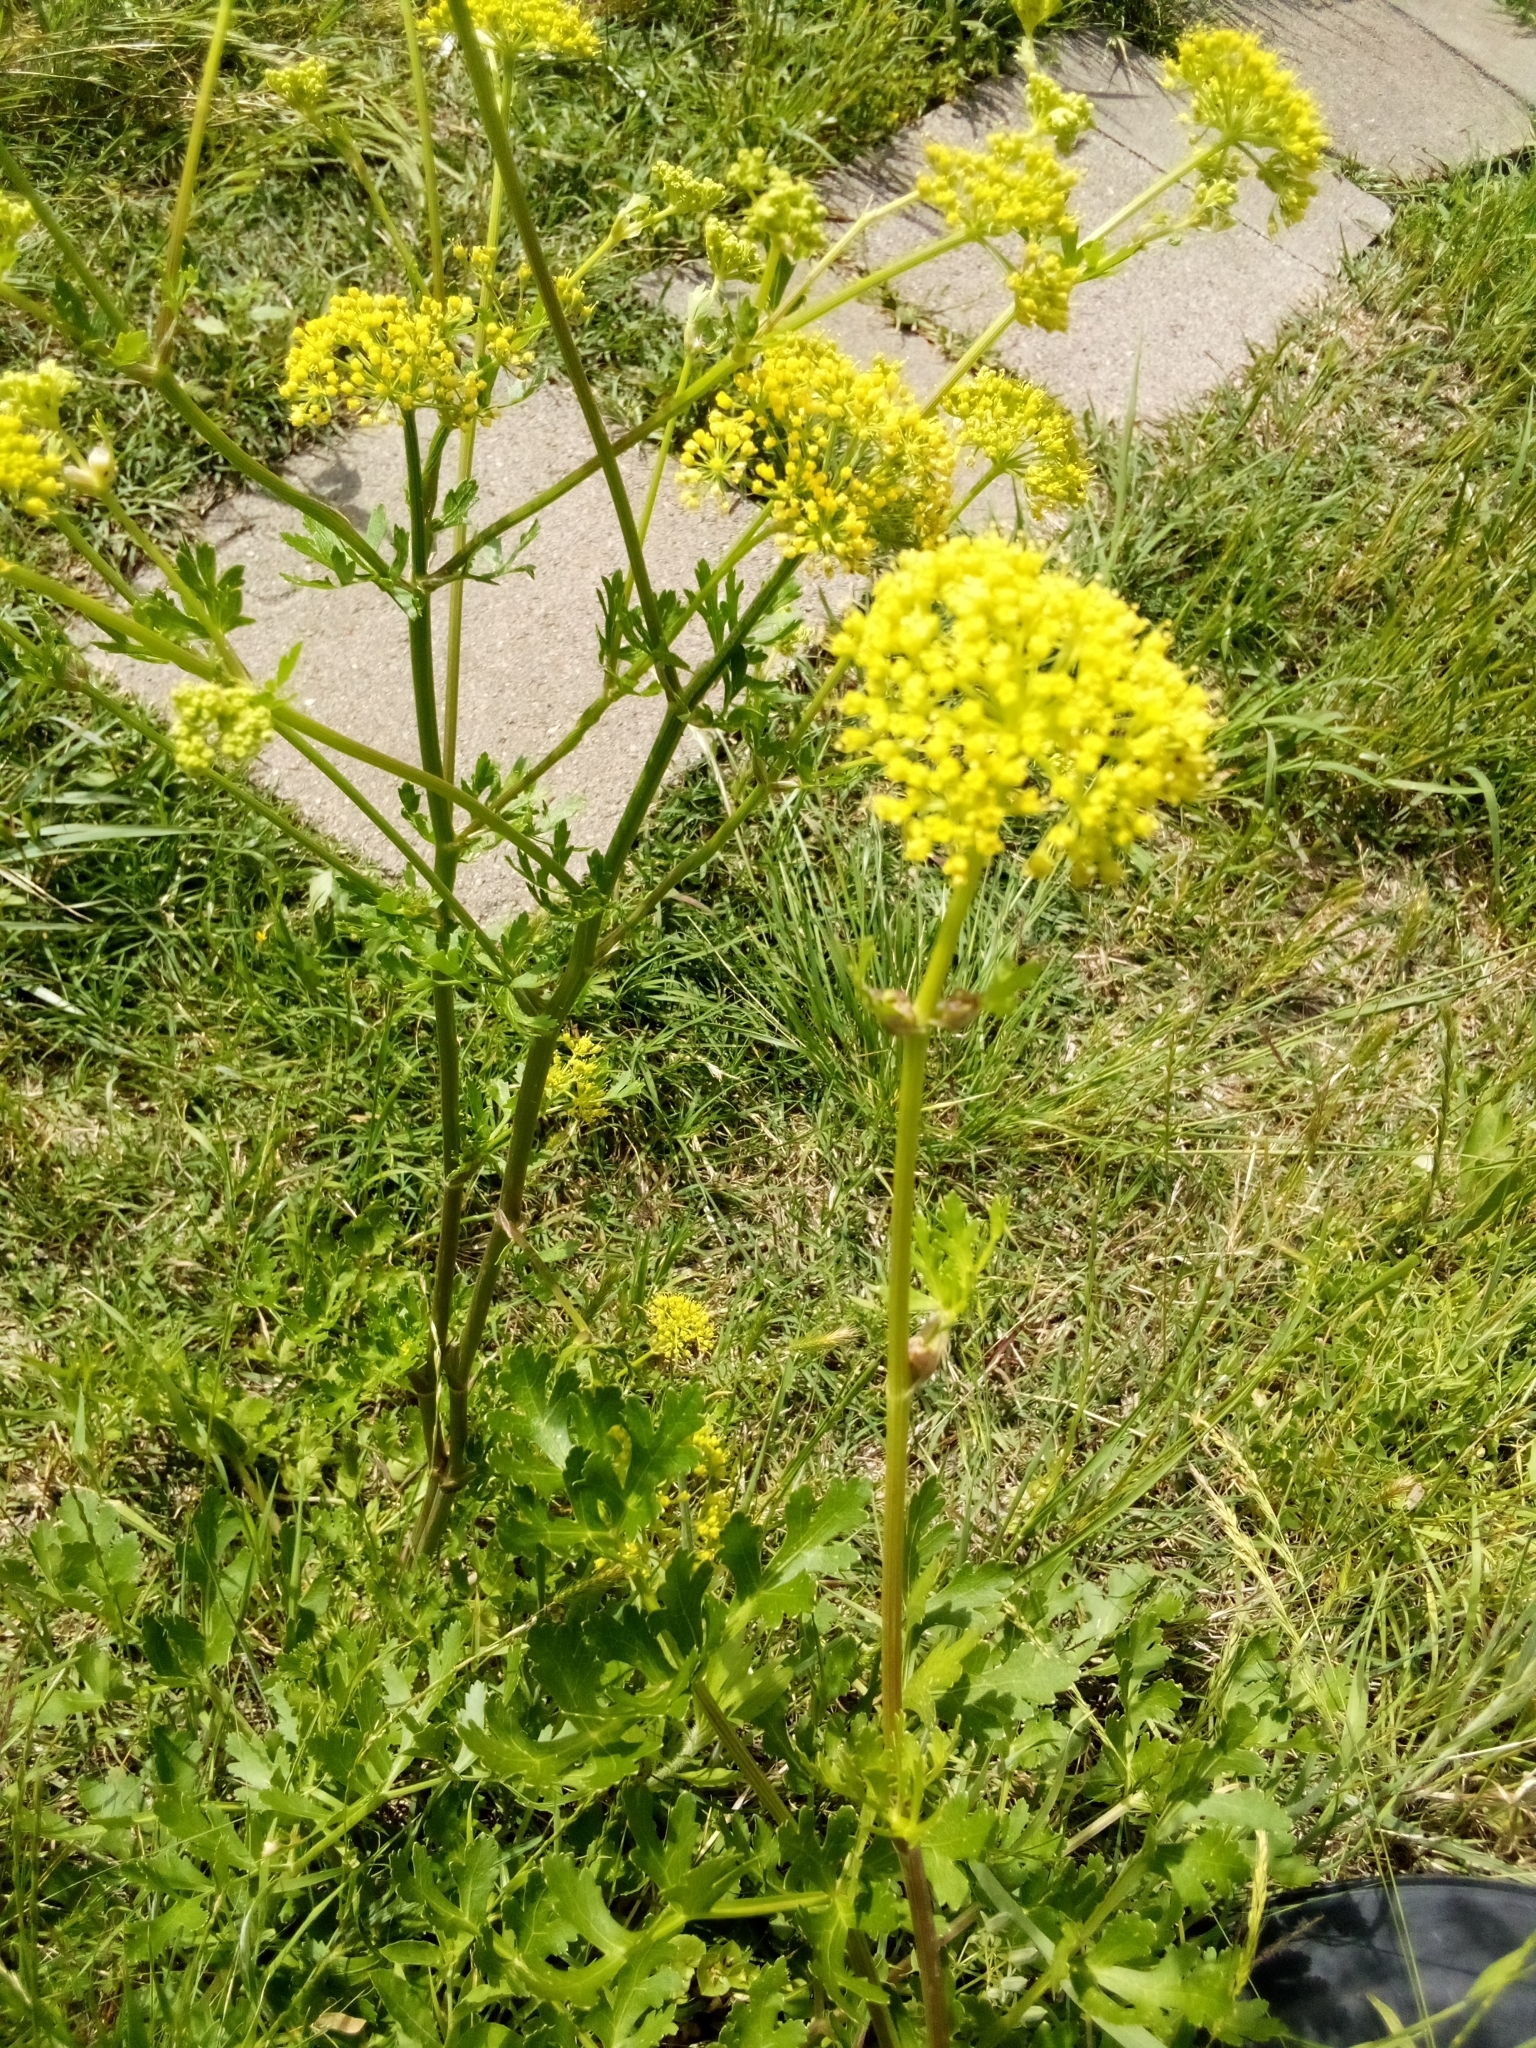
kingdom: Plantae
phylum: Tracheophyta
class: Magnoliopsida
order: Apiales
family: Apiaceae
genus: Polytaenia
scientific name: Polytaenia texana
